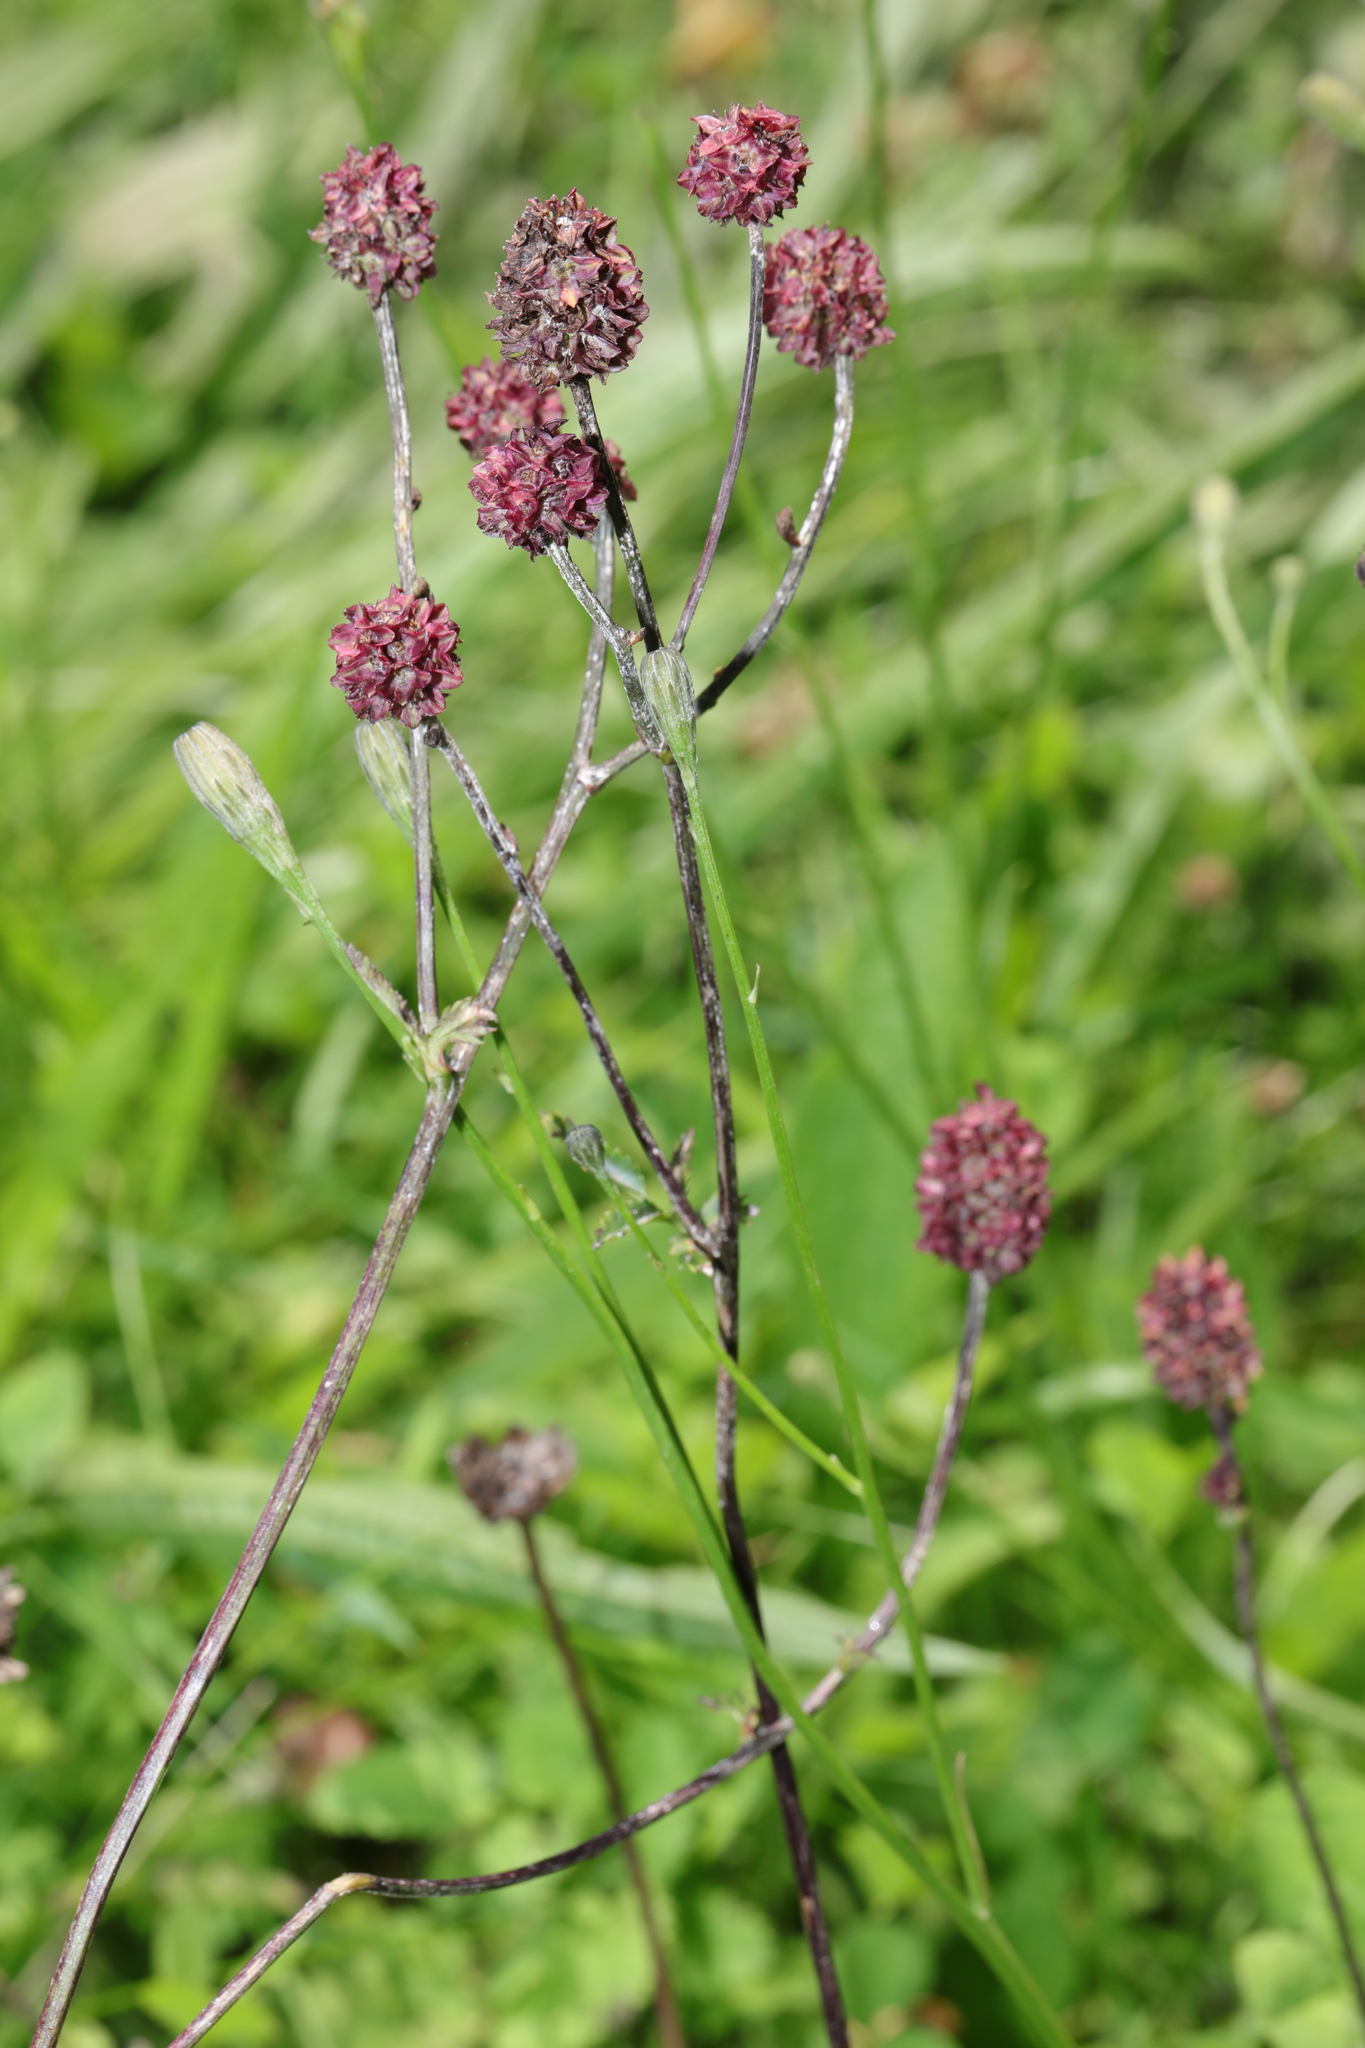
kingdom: Plantae
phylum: Tracheophyta
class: Magnoliopsida
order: Rosales
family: Rosaceae
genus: Sanguisorba
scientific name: Sanguisorba officinalis
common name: Great burnet
